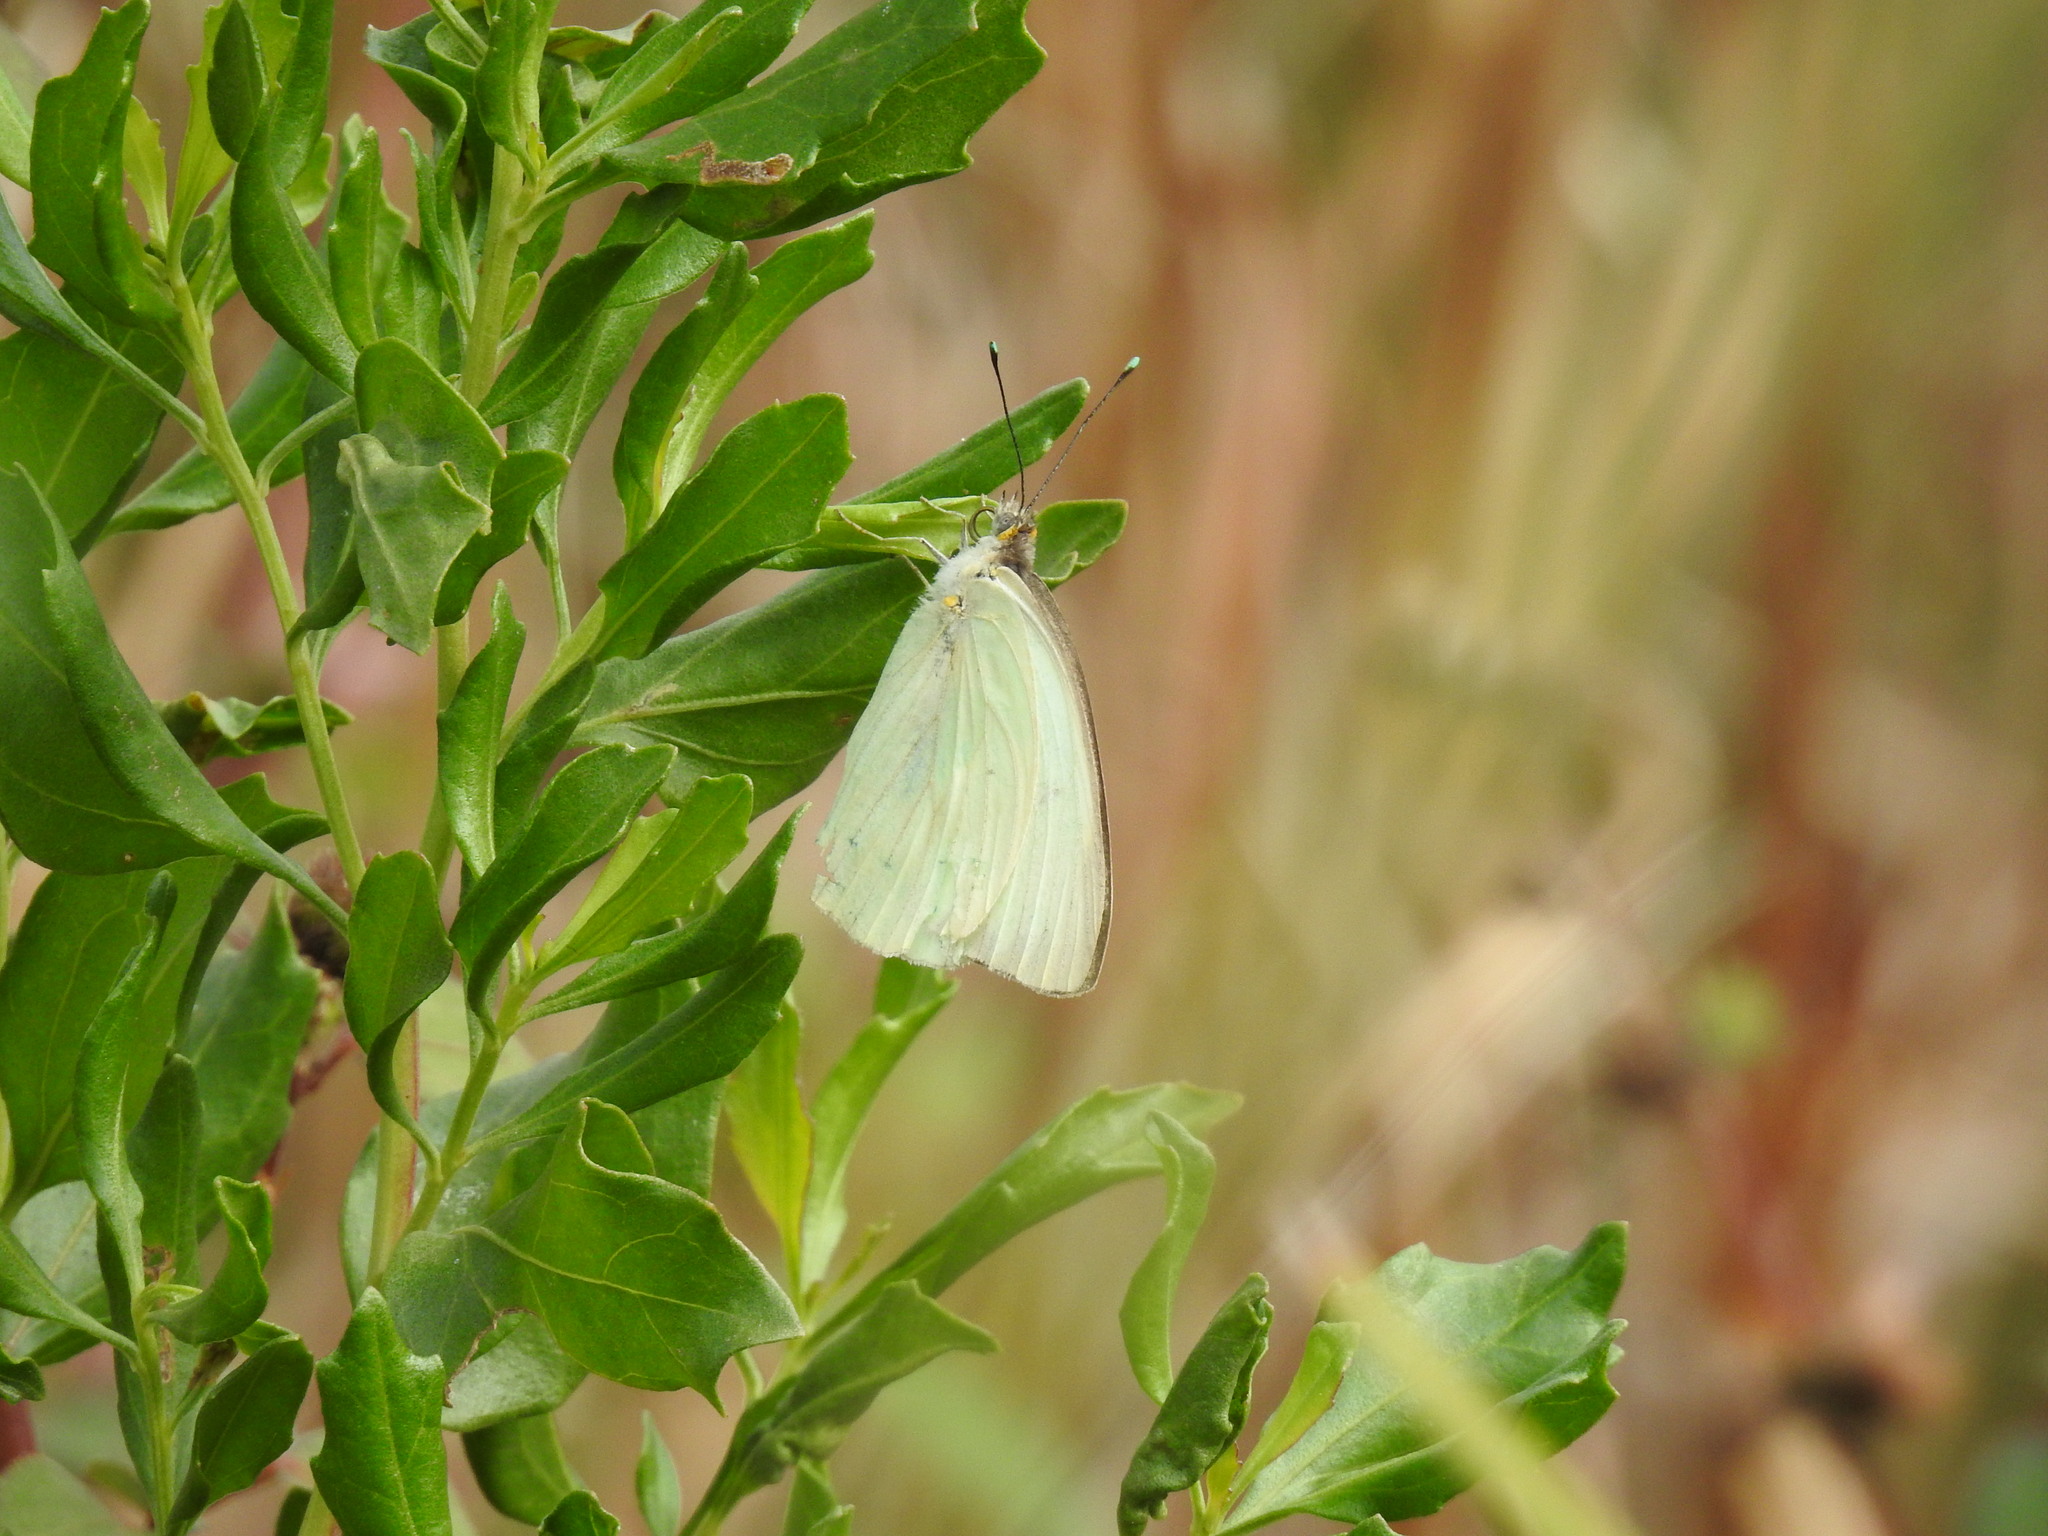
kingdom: Animalia
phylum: Arthropoda
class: Insecta
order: Lepidoptera
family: Pieridae
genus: Ascia
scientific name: Ascia monuste
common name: Great southern white
